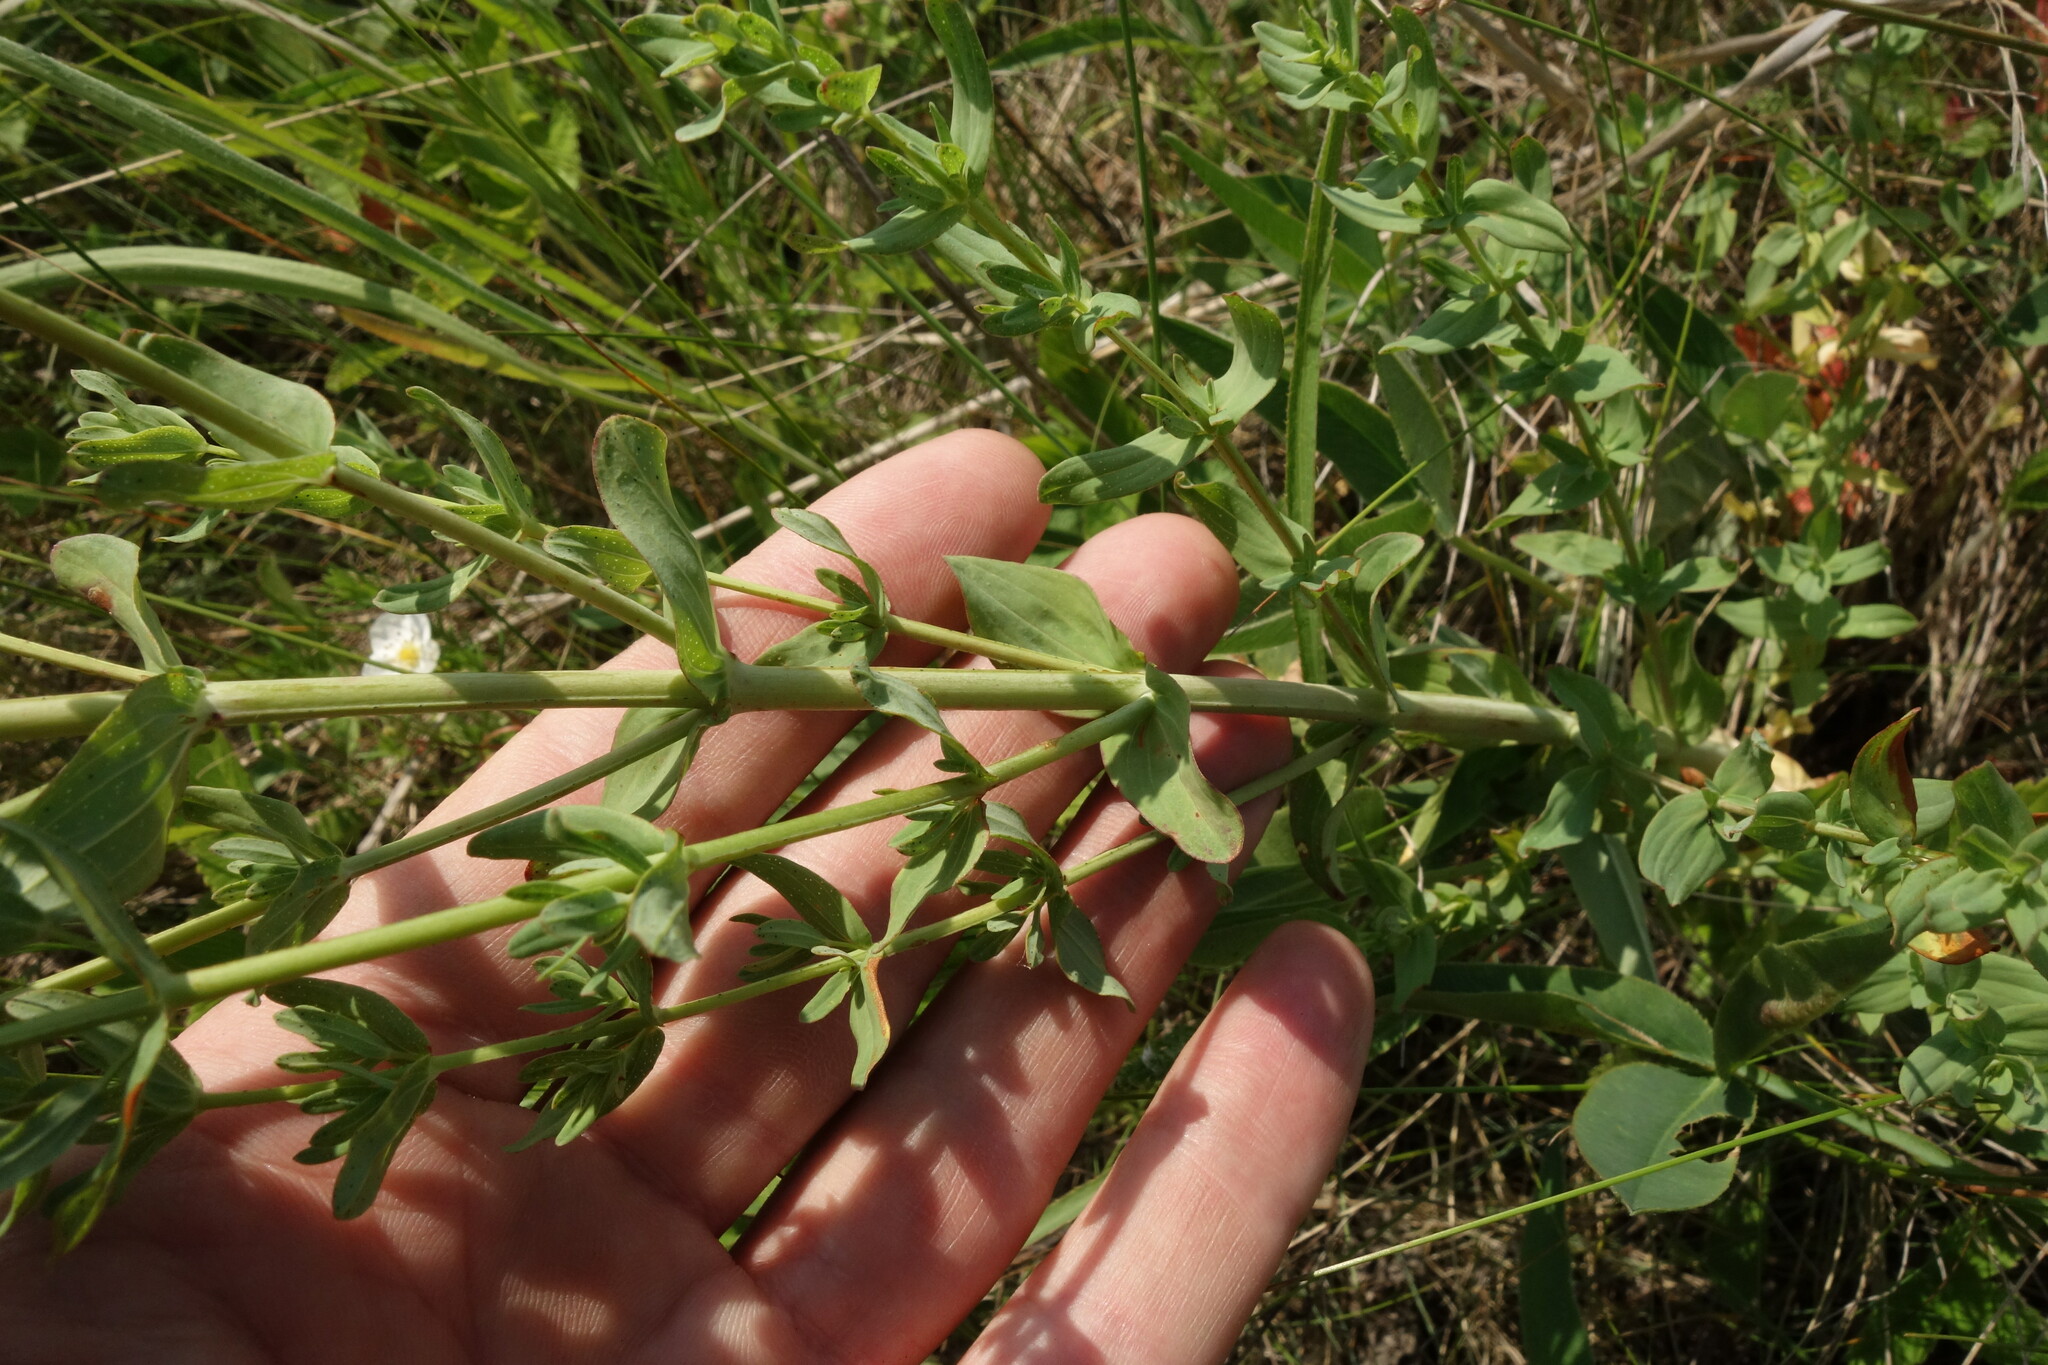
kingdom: Plantae
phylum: Tracheophyta
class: Magnoliopsida
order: Malpighiales
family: Hypericaceae
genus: Hypericum
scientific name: Hypericum perforatum
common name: Common st. johnswort
